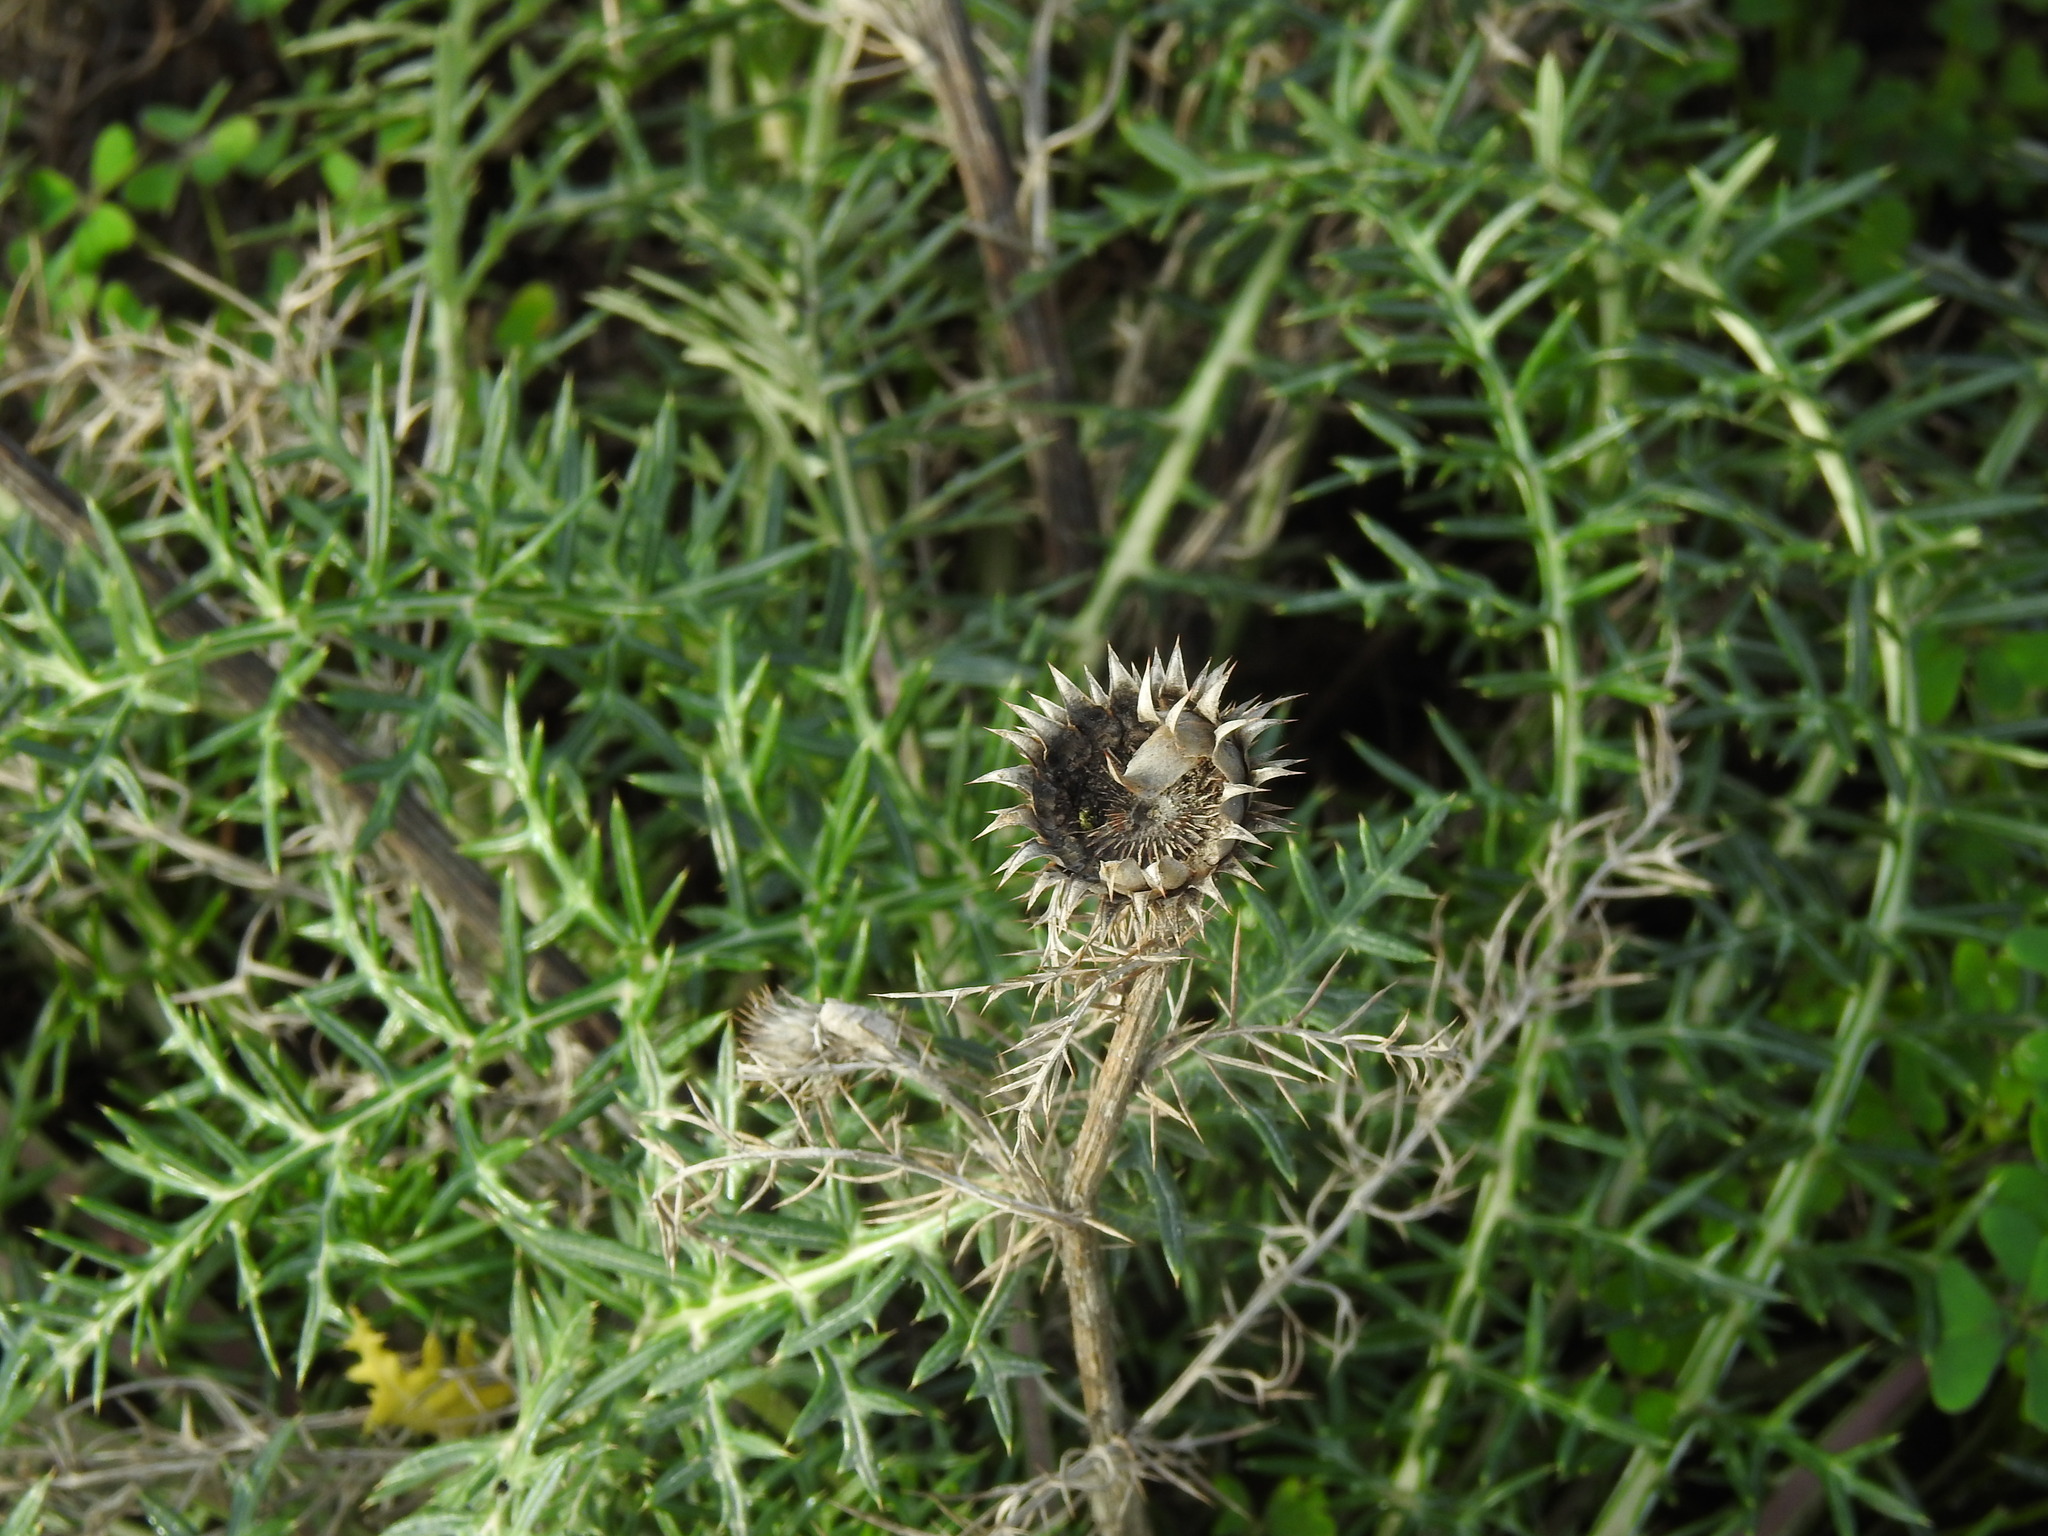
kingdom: Plantae
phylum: Tracheophyta
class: Magnoliopsida
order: Asterales
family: Asteraceae
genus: Cynara
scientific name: Cynara humilis
